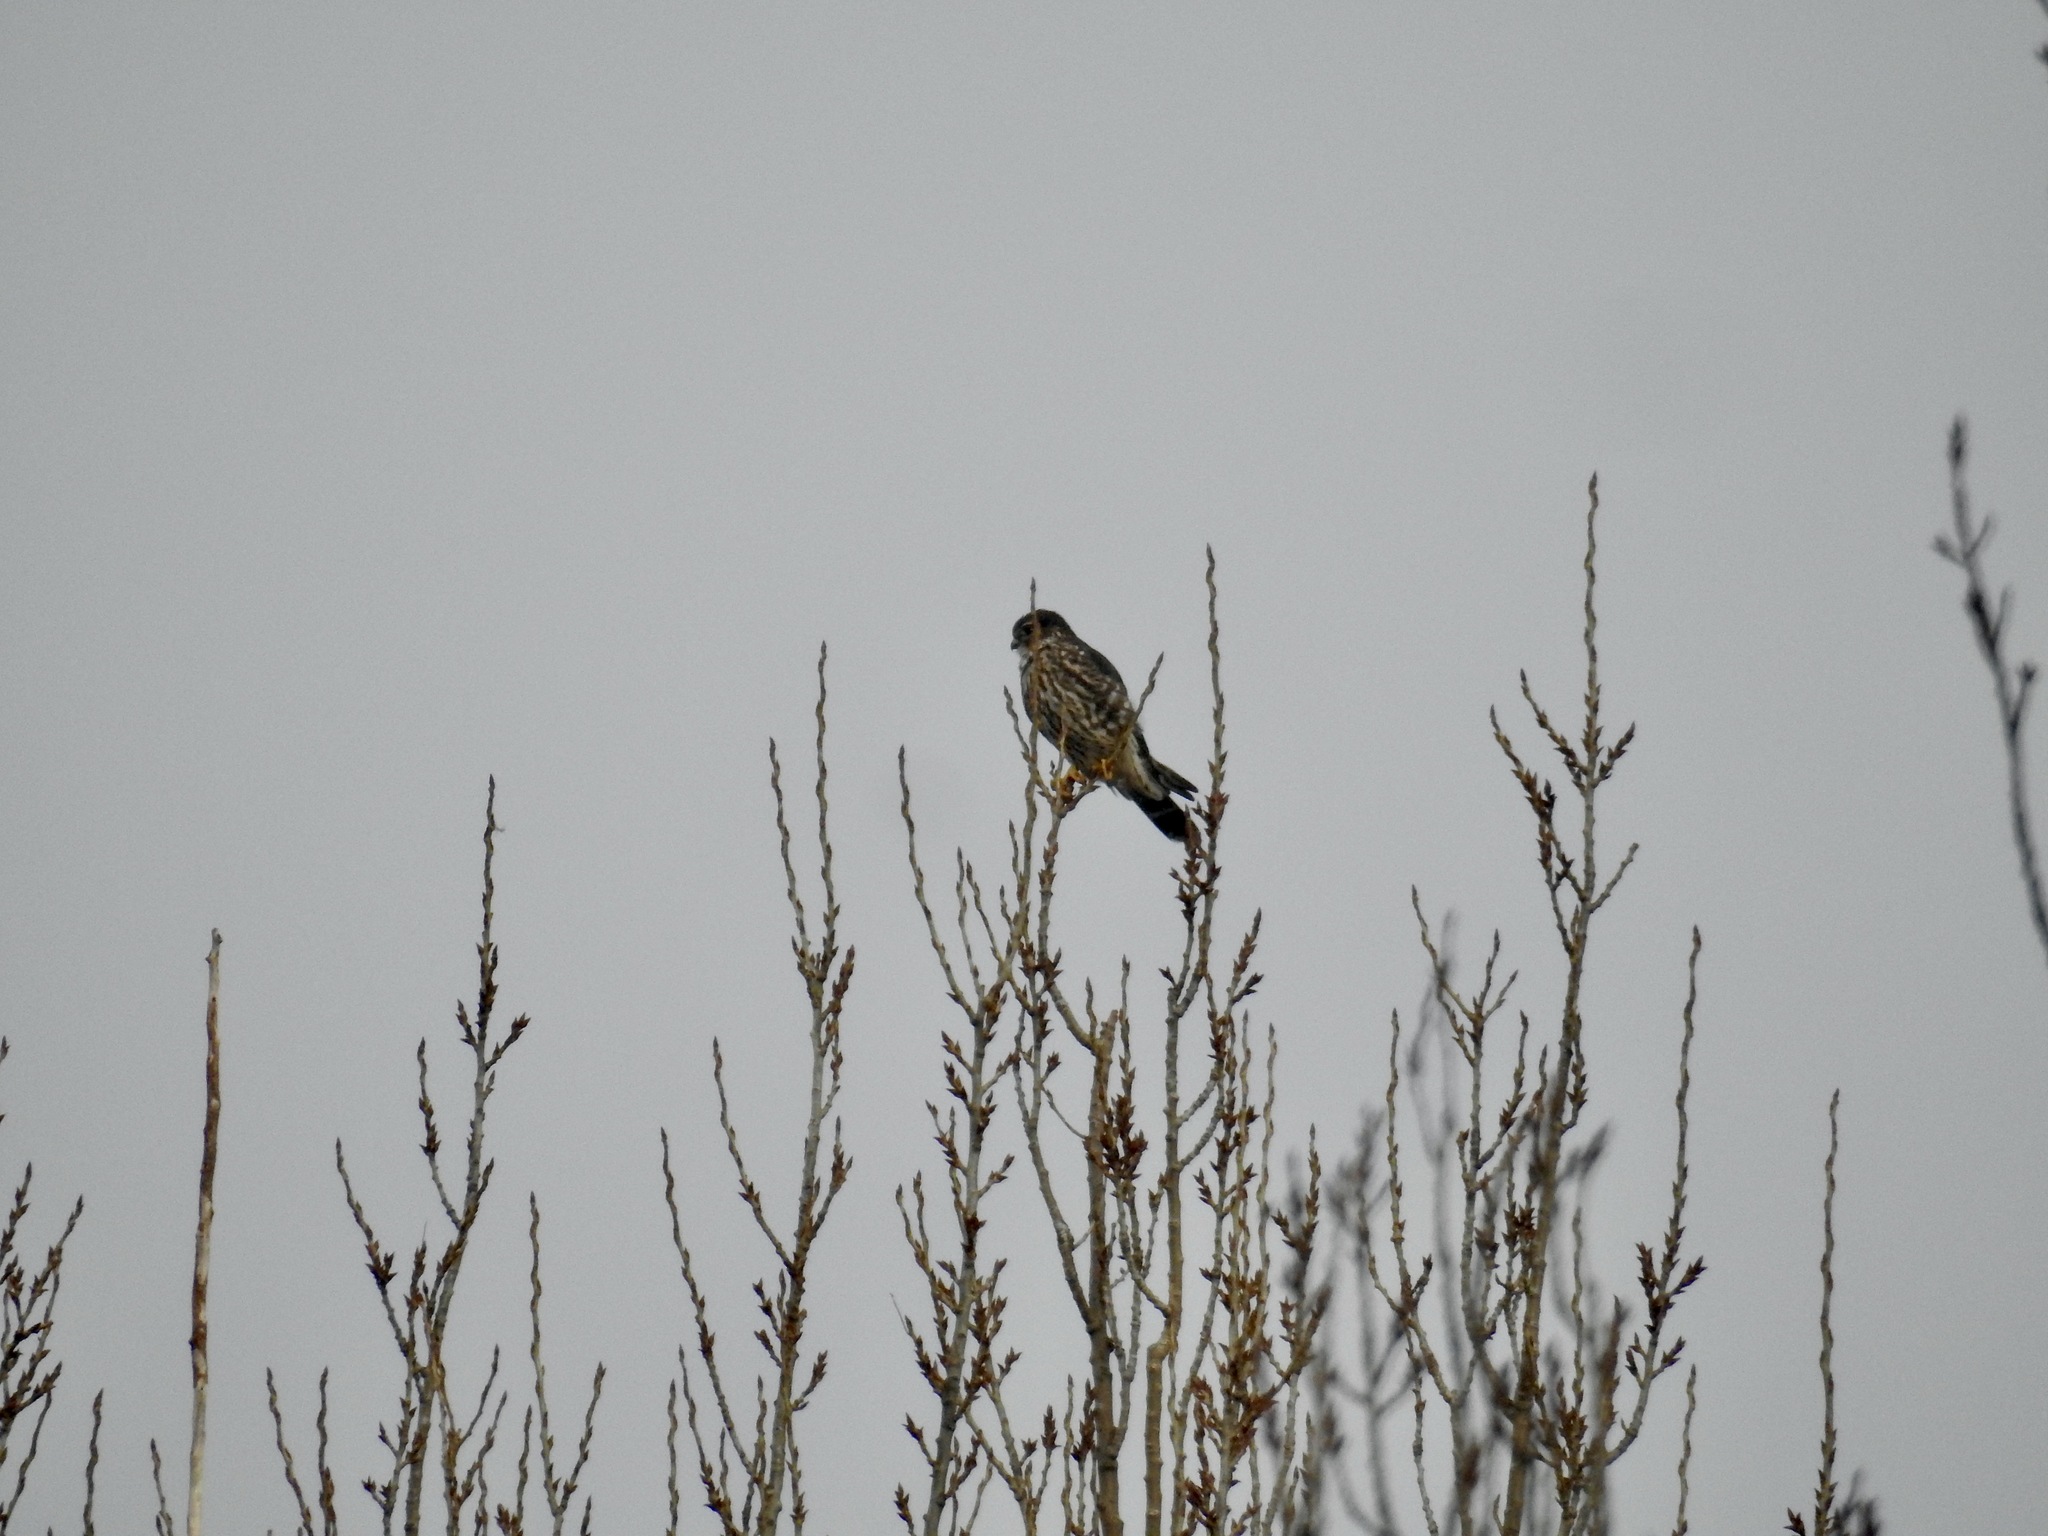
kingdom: Animalia
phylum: Chordata
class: Aves
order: Falconiformes
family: Falconidae
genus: Falco
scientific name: Falco columbarius
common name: Merlin
